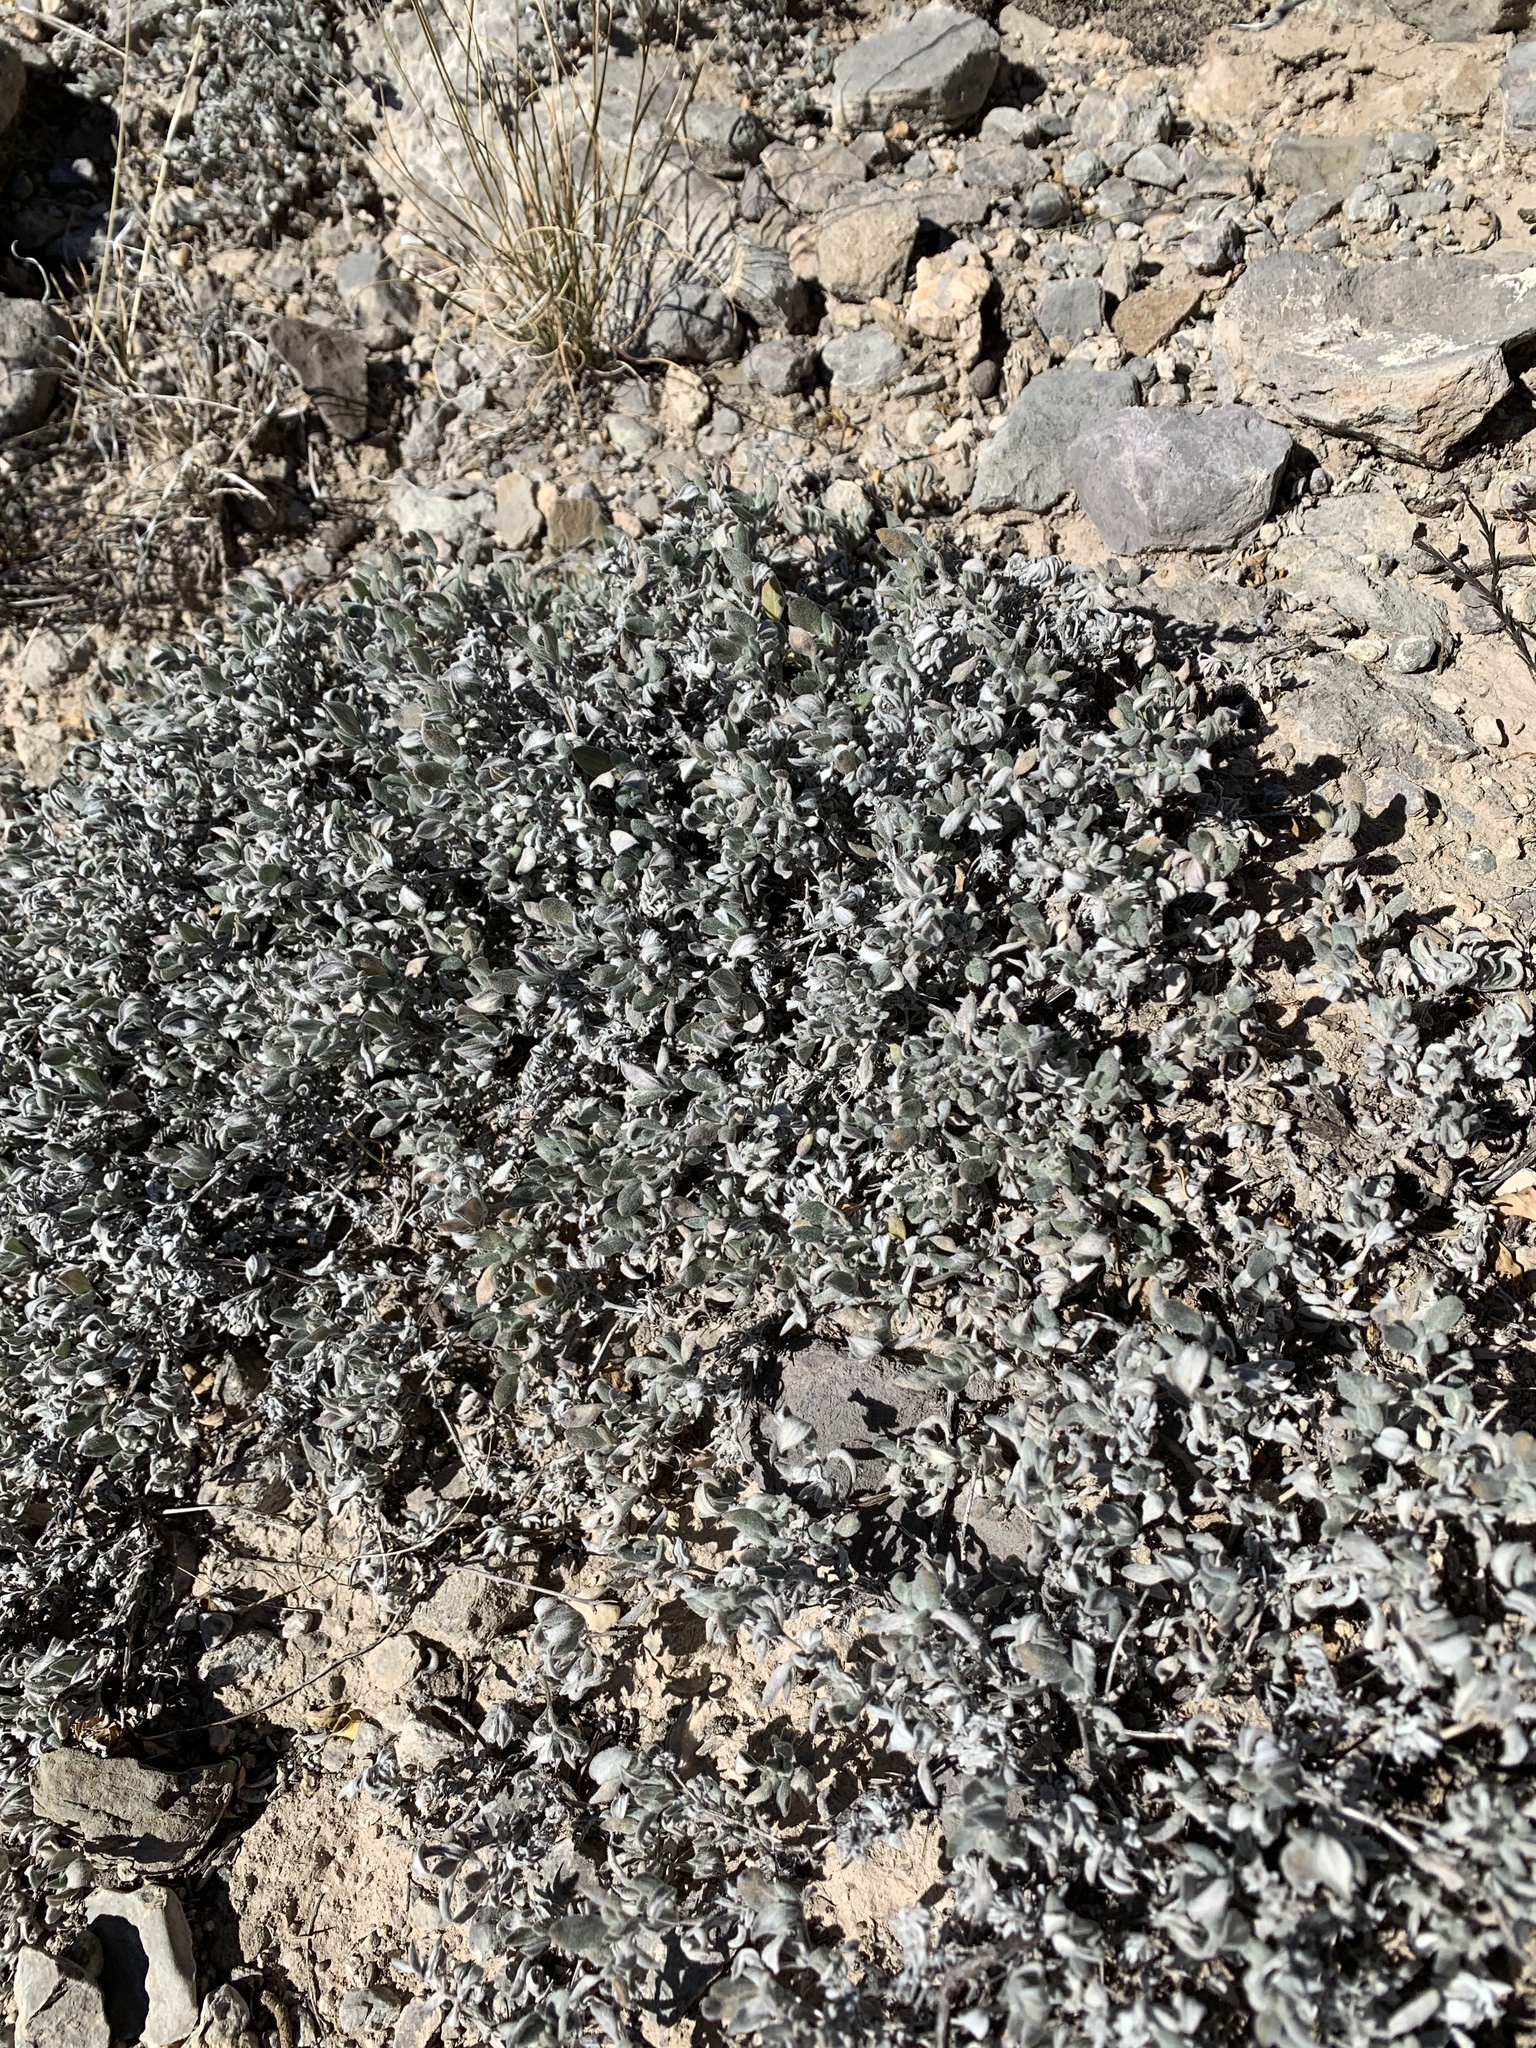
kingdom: Plantae
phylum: Tracheophyta
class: Magnoliopsida
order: Boraginales
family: Ehretiaceae
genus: Tiquilia
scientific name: Tiquilia canescens
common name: Hairy tiquilia
